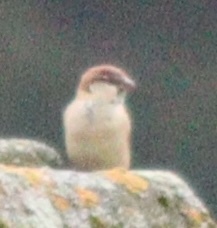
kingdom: Animalia
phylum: Chordata
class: Aves
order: Passeriformes
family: Passeridae
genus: Passer
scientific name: Passer italiae
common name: Italian sparrow
